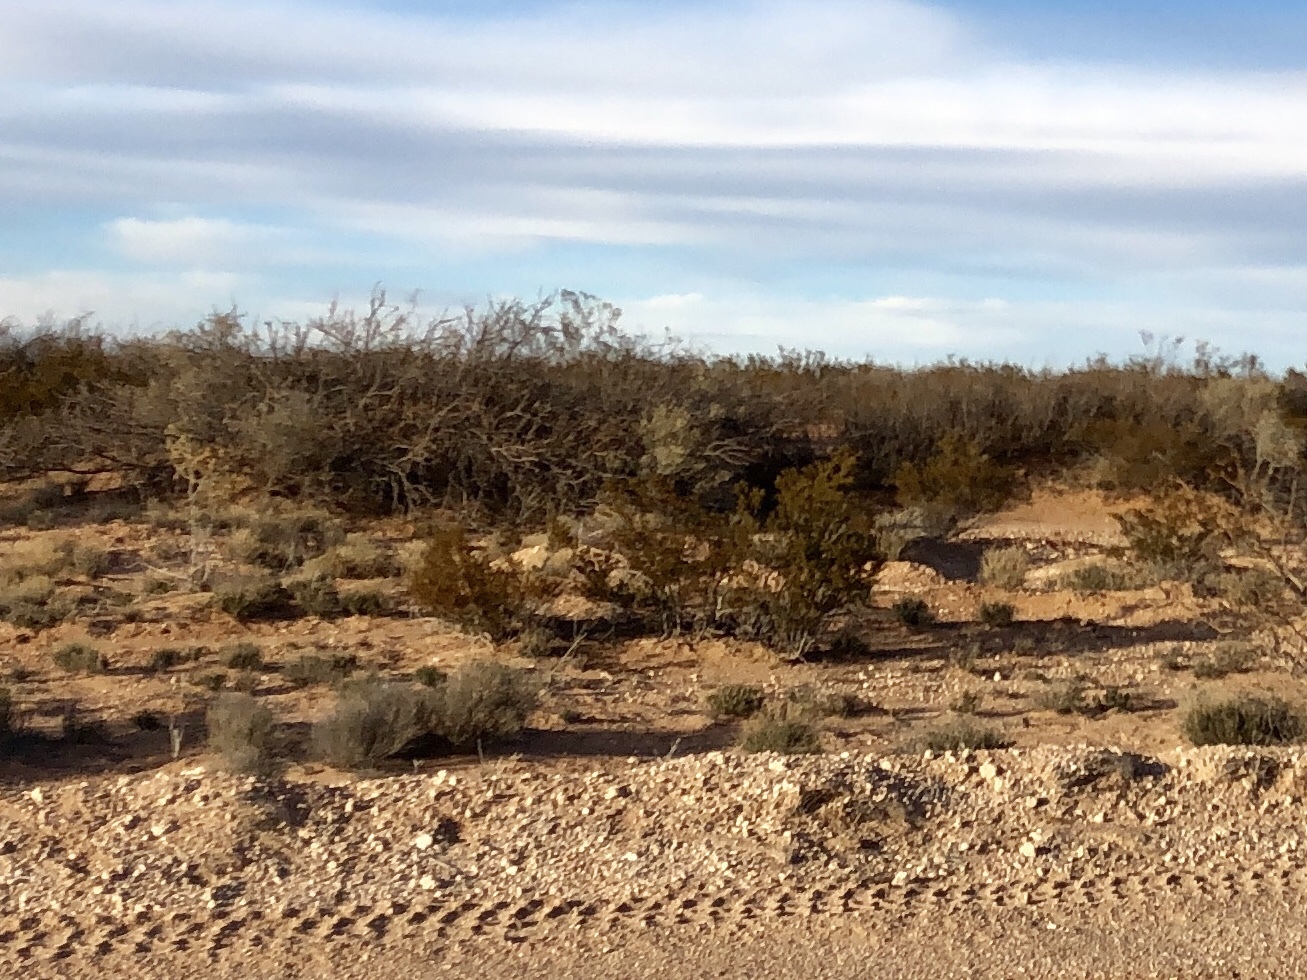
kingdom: Plantae
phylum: Tracheophyta
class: Magnoliopsida
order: Zygophyllales
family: Zygophyllaceae
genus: Larrea
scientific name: Larrea tridentata
